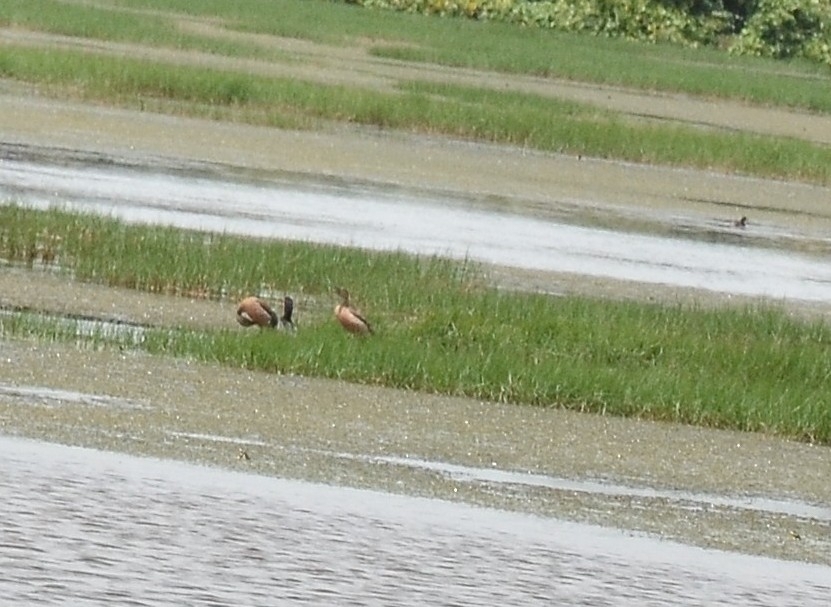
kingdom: Animalia
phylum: Chordata
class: Aves
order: Anseriformes
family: Anatidae
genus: Dendrocygna
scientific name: Dendrocygna javanica
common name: Lesser whistling-duck
